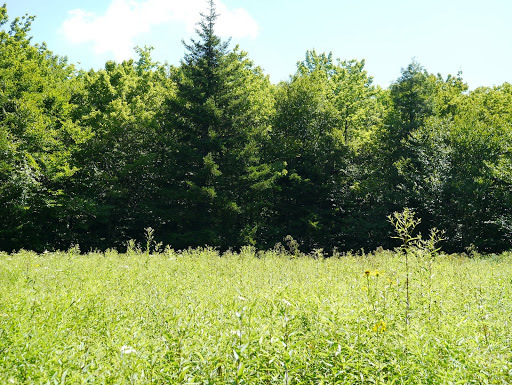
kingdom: Plantae
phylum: Tracheophyta
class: Magnoliopsida
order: Asterales
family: Asteraceae
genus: Rudbeckia
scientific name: Rudbeckia laciniata
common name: Coneflower
